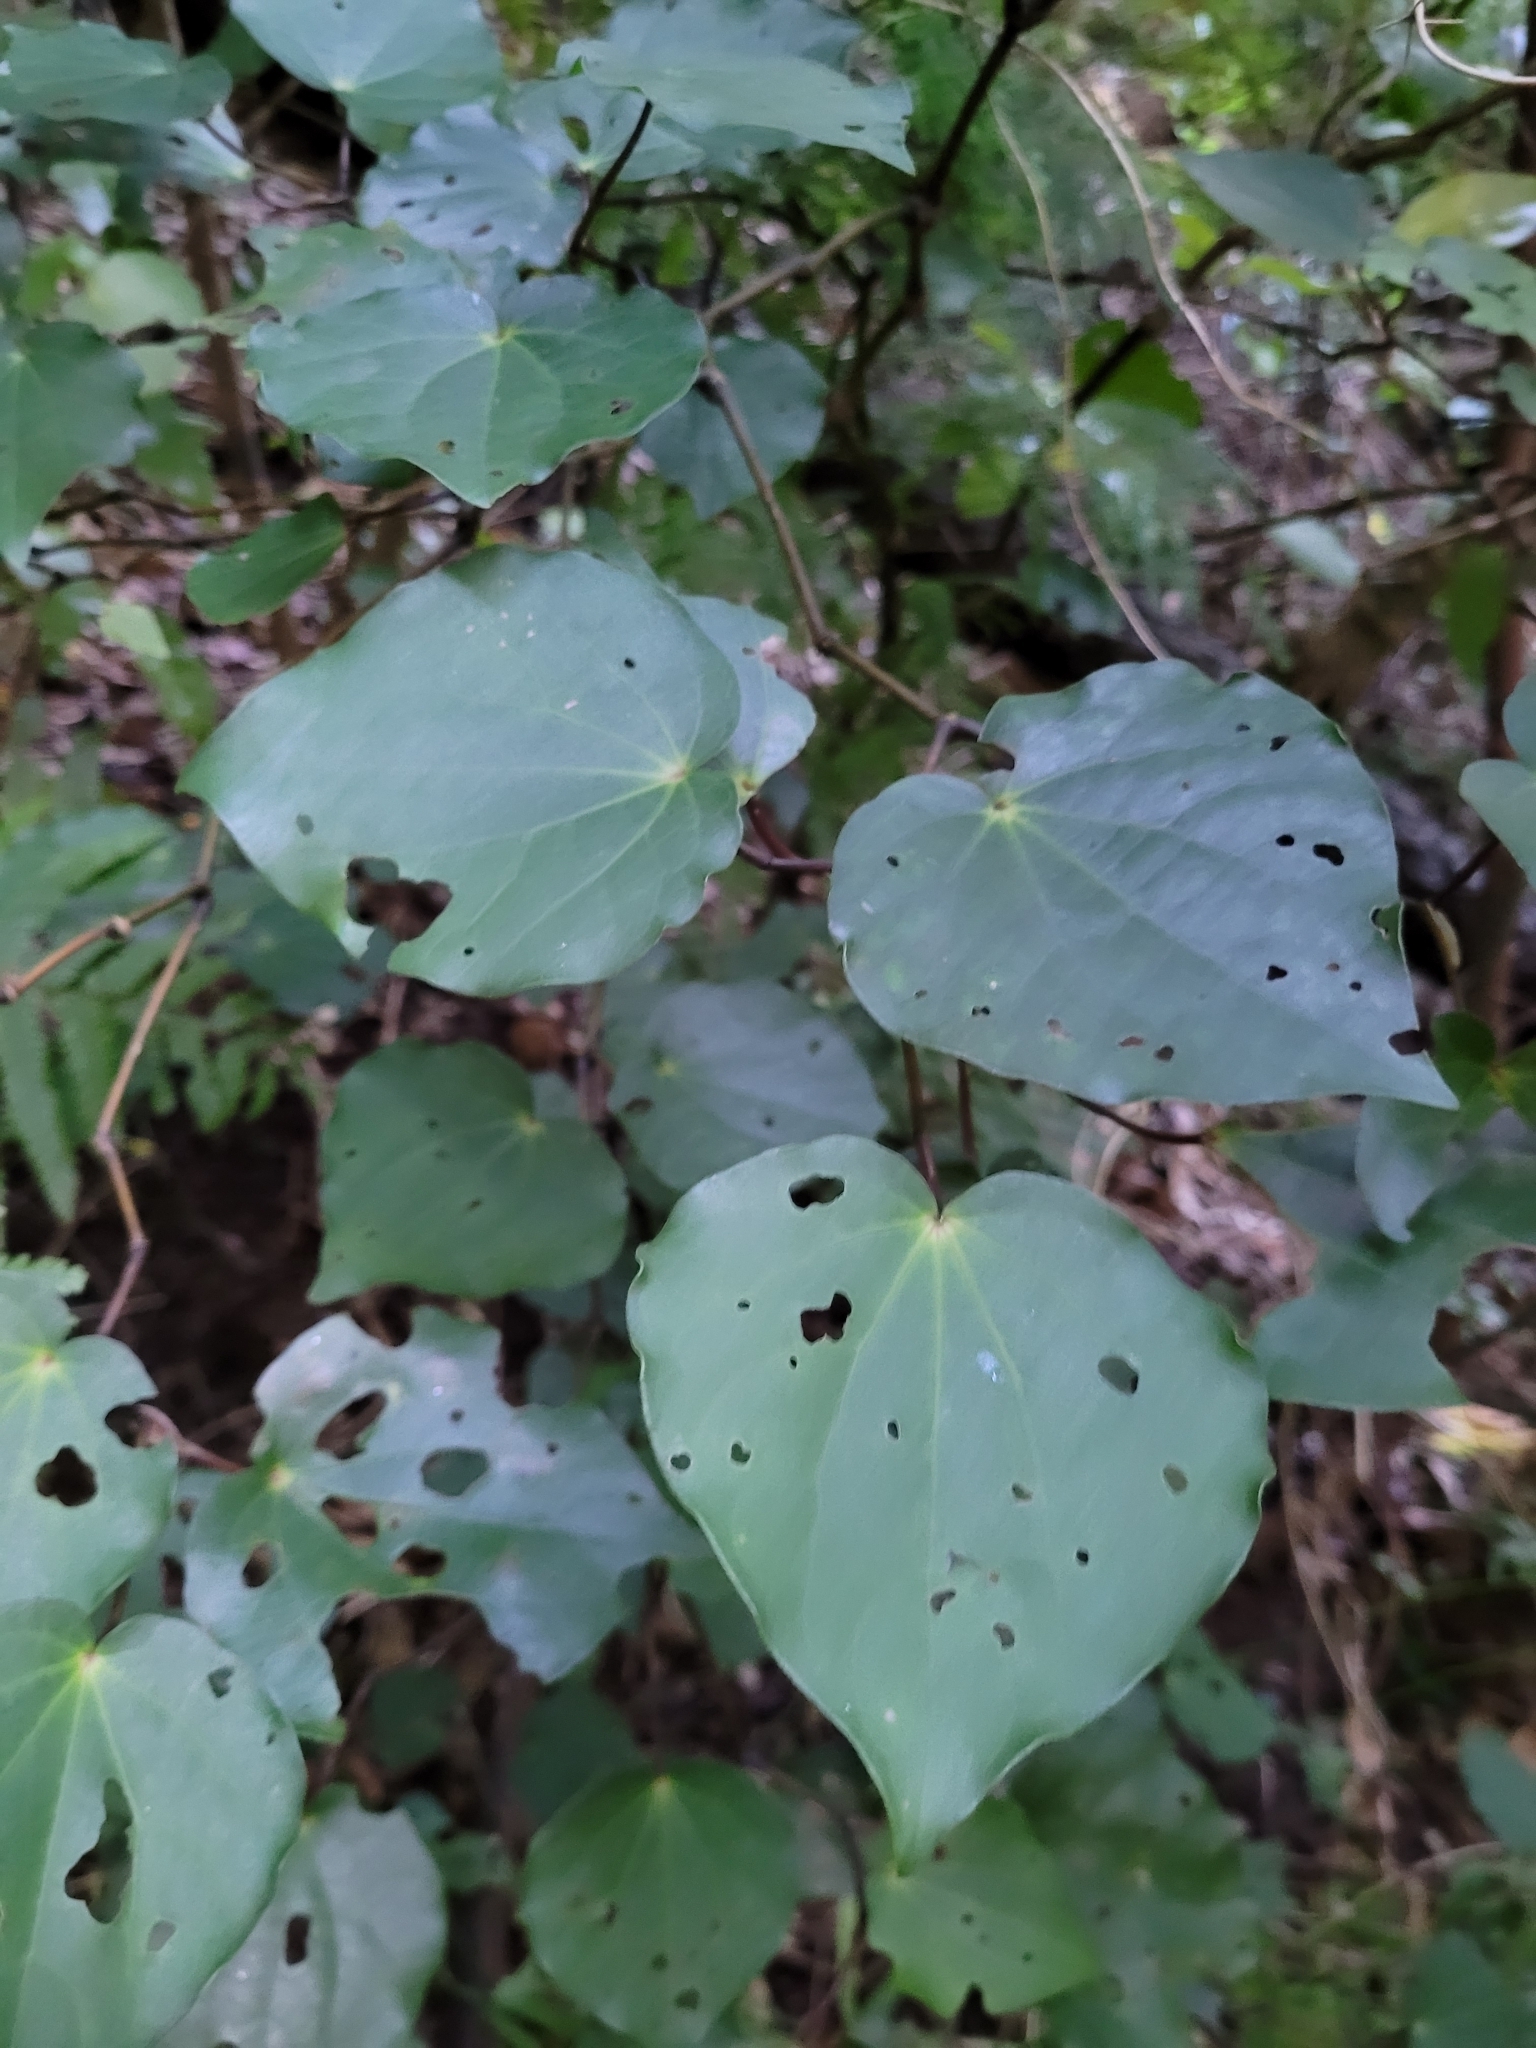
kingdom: Plantae
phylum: Tracheophyta
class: Magnoliopsida
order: Piperales
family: Piperaceae
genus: Macropiper
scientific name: Macropiper excelsum
